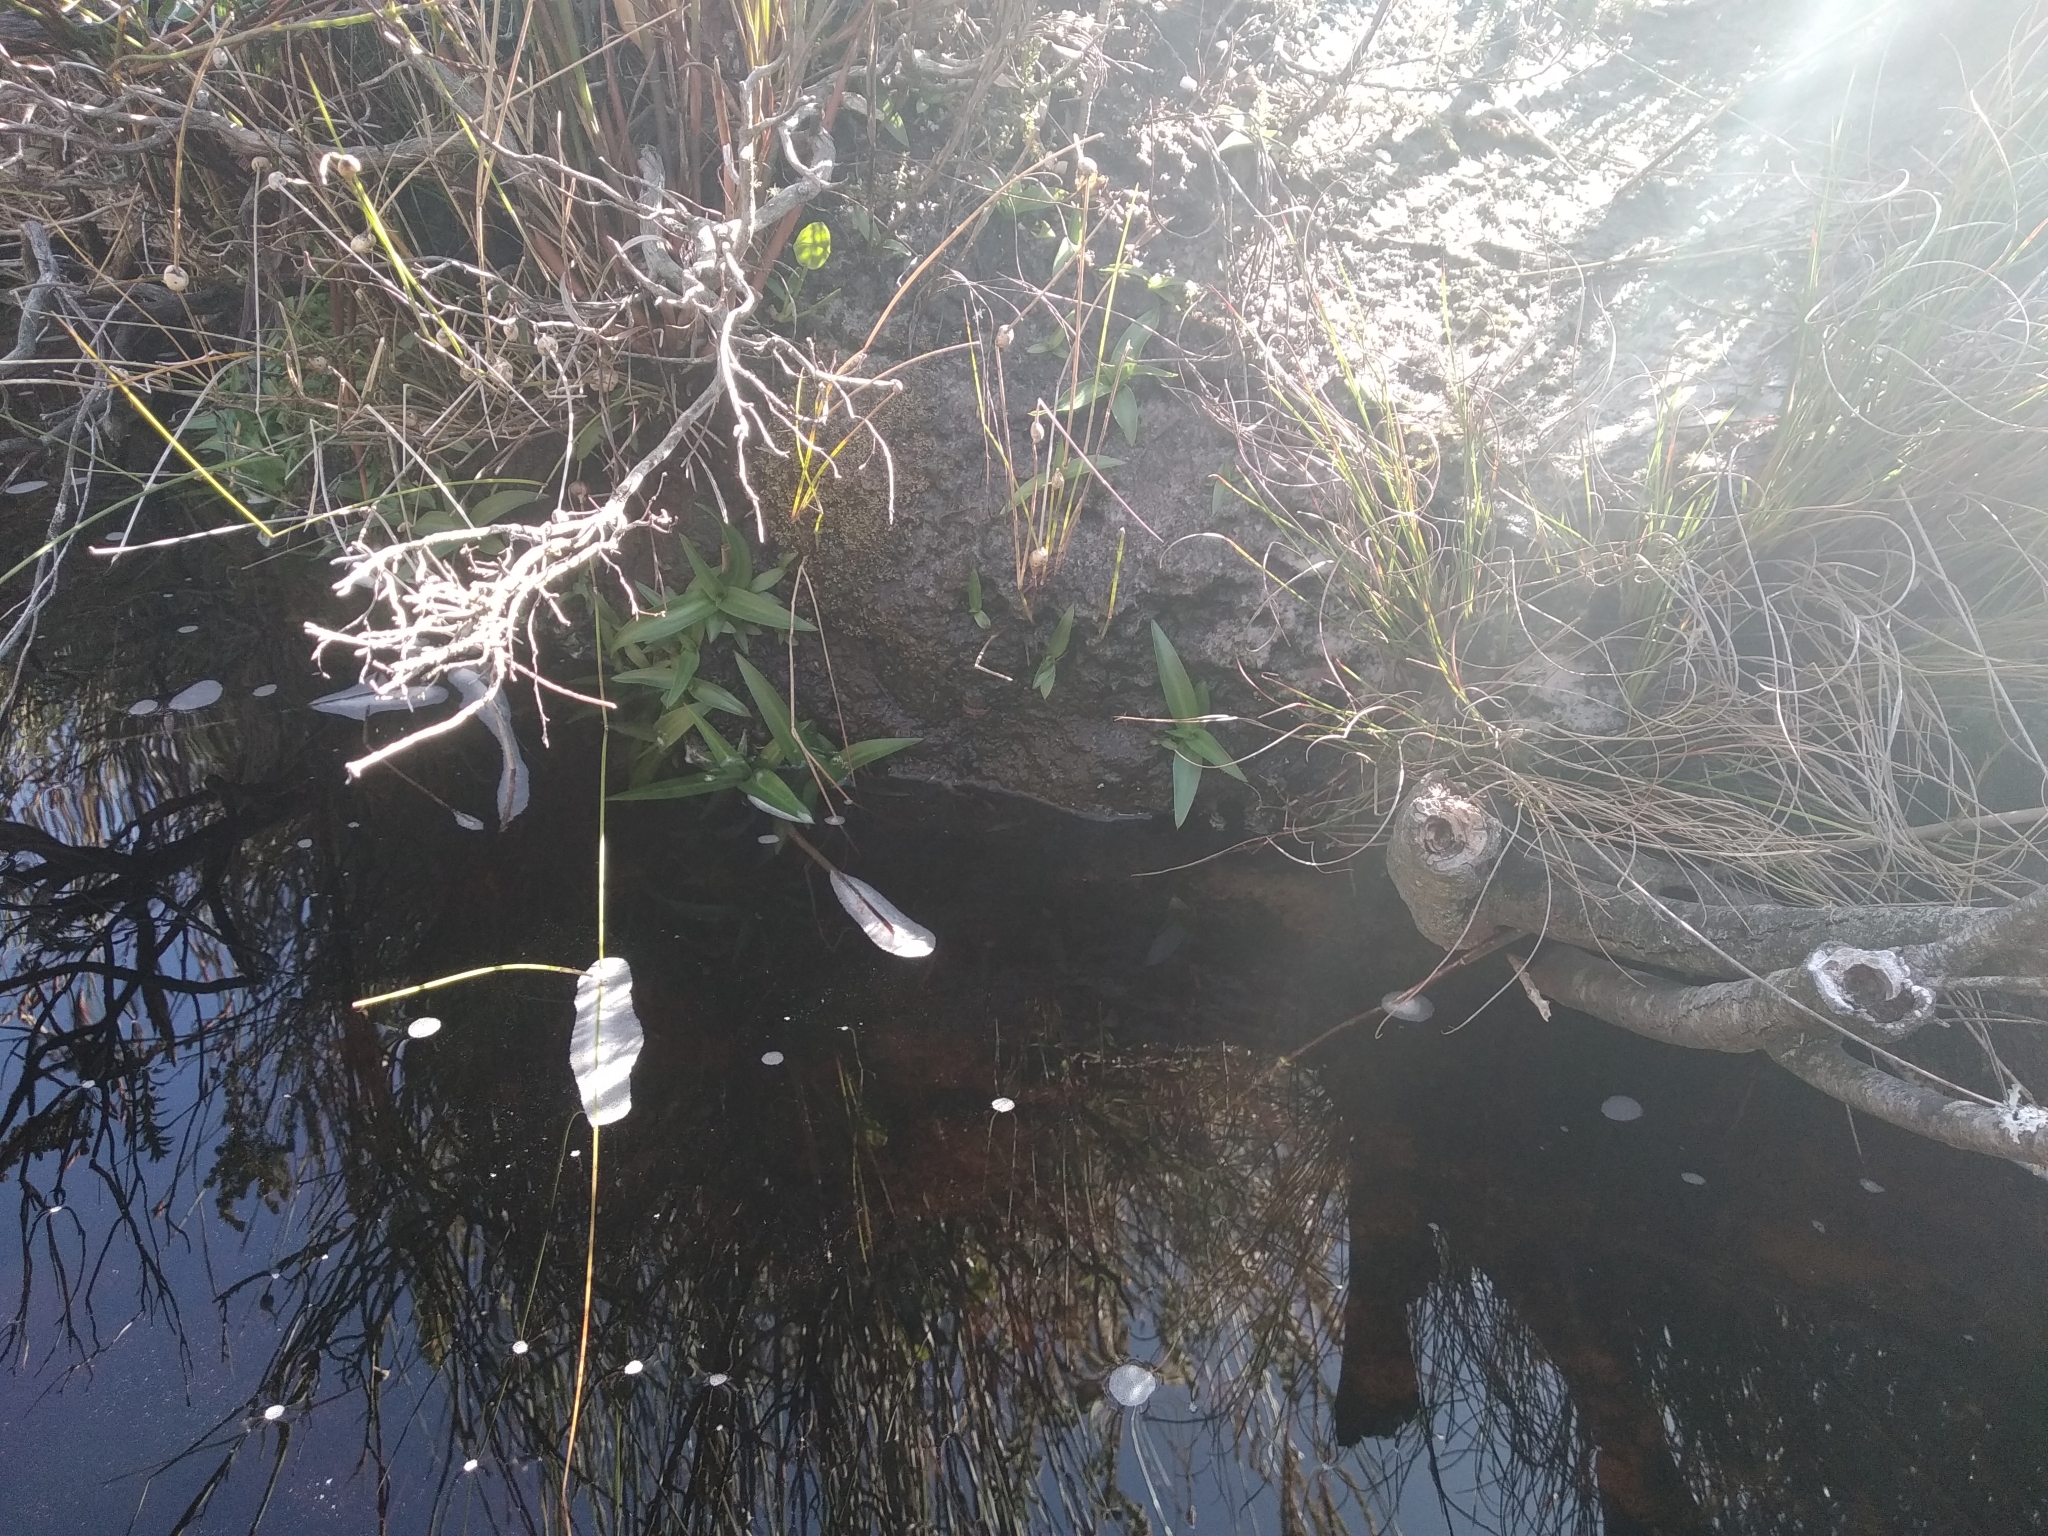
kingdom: Plantae
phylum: Tracheophyta
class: Liliopsida
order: Asparagales
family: Orchidaceae
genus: Disa
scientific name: Disa uniflora
